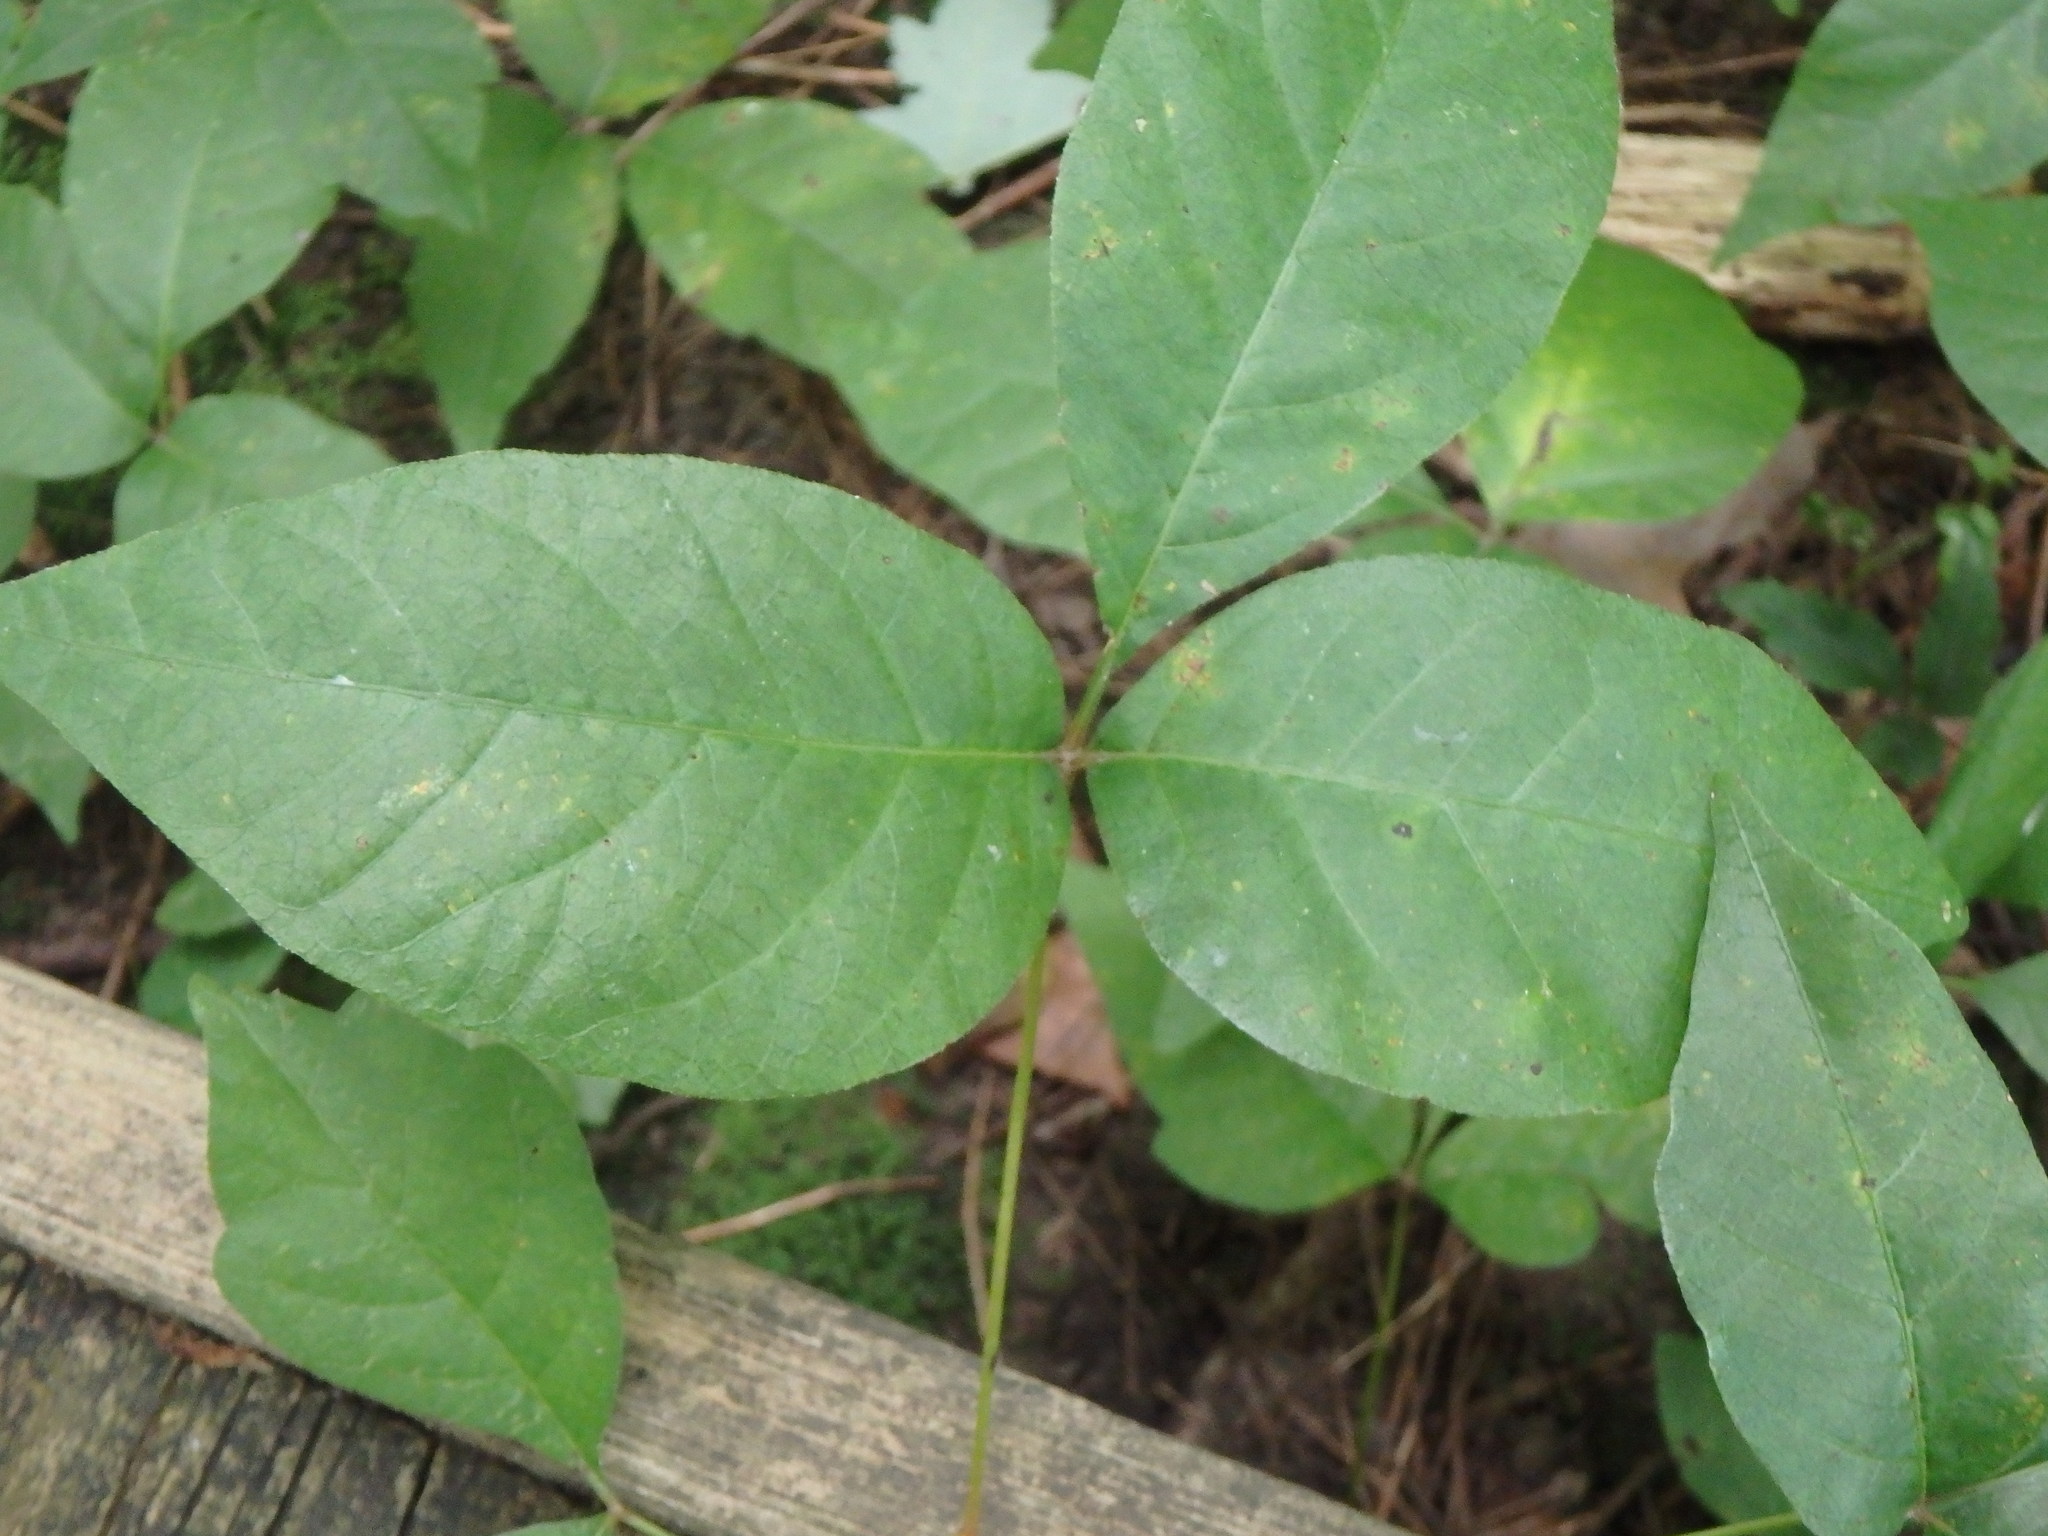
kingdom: Plantae
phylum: Tracheophyta
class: Magnoliopsida
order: Sapindales
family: Anacardiaceae
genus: Toxicodendron
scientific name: Toxicodendron radicans
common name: Poison ivy
